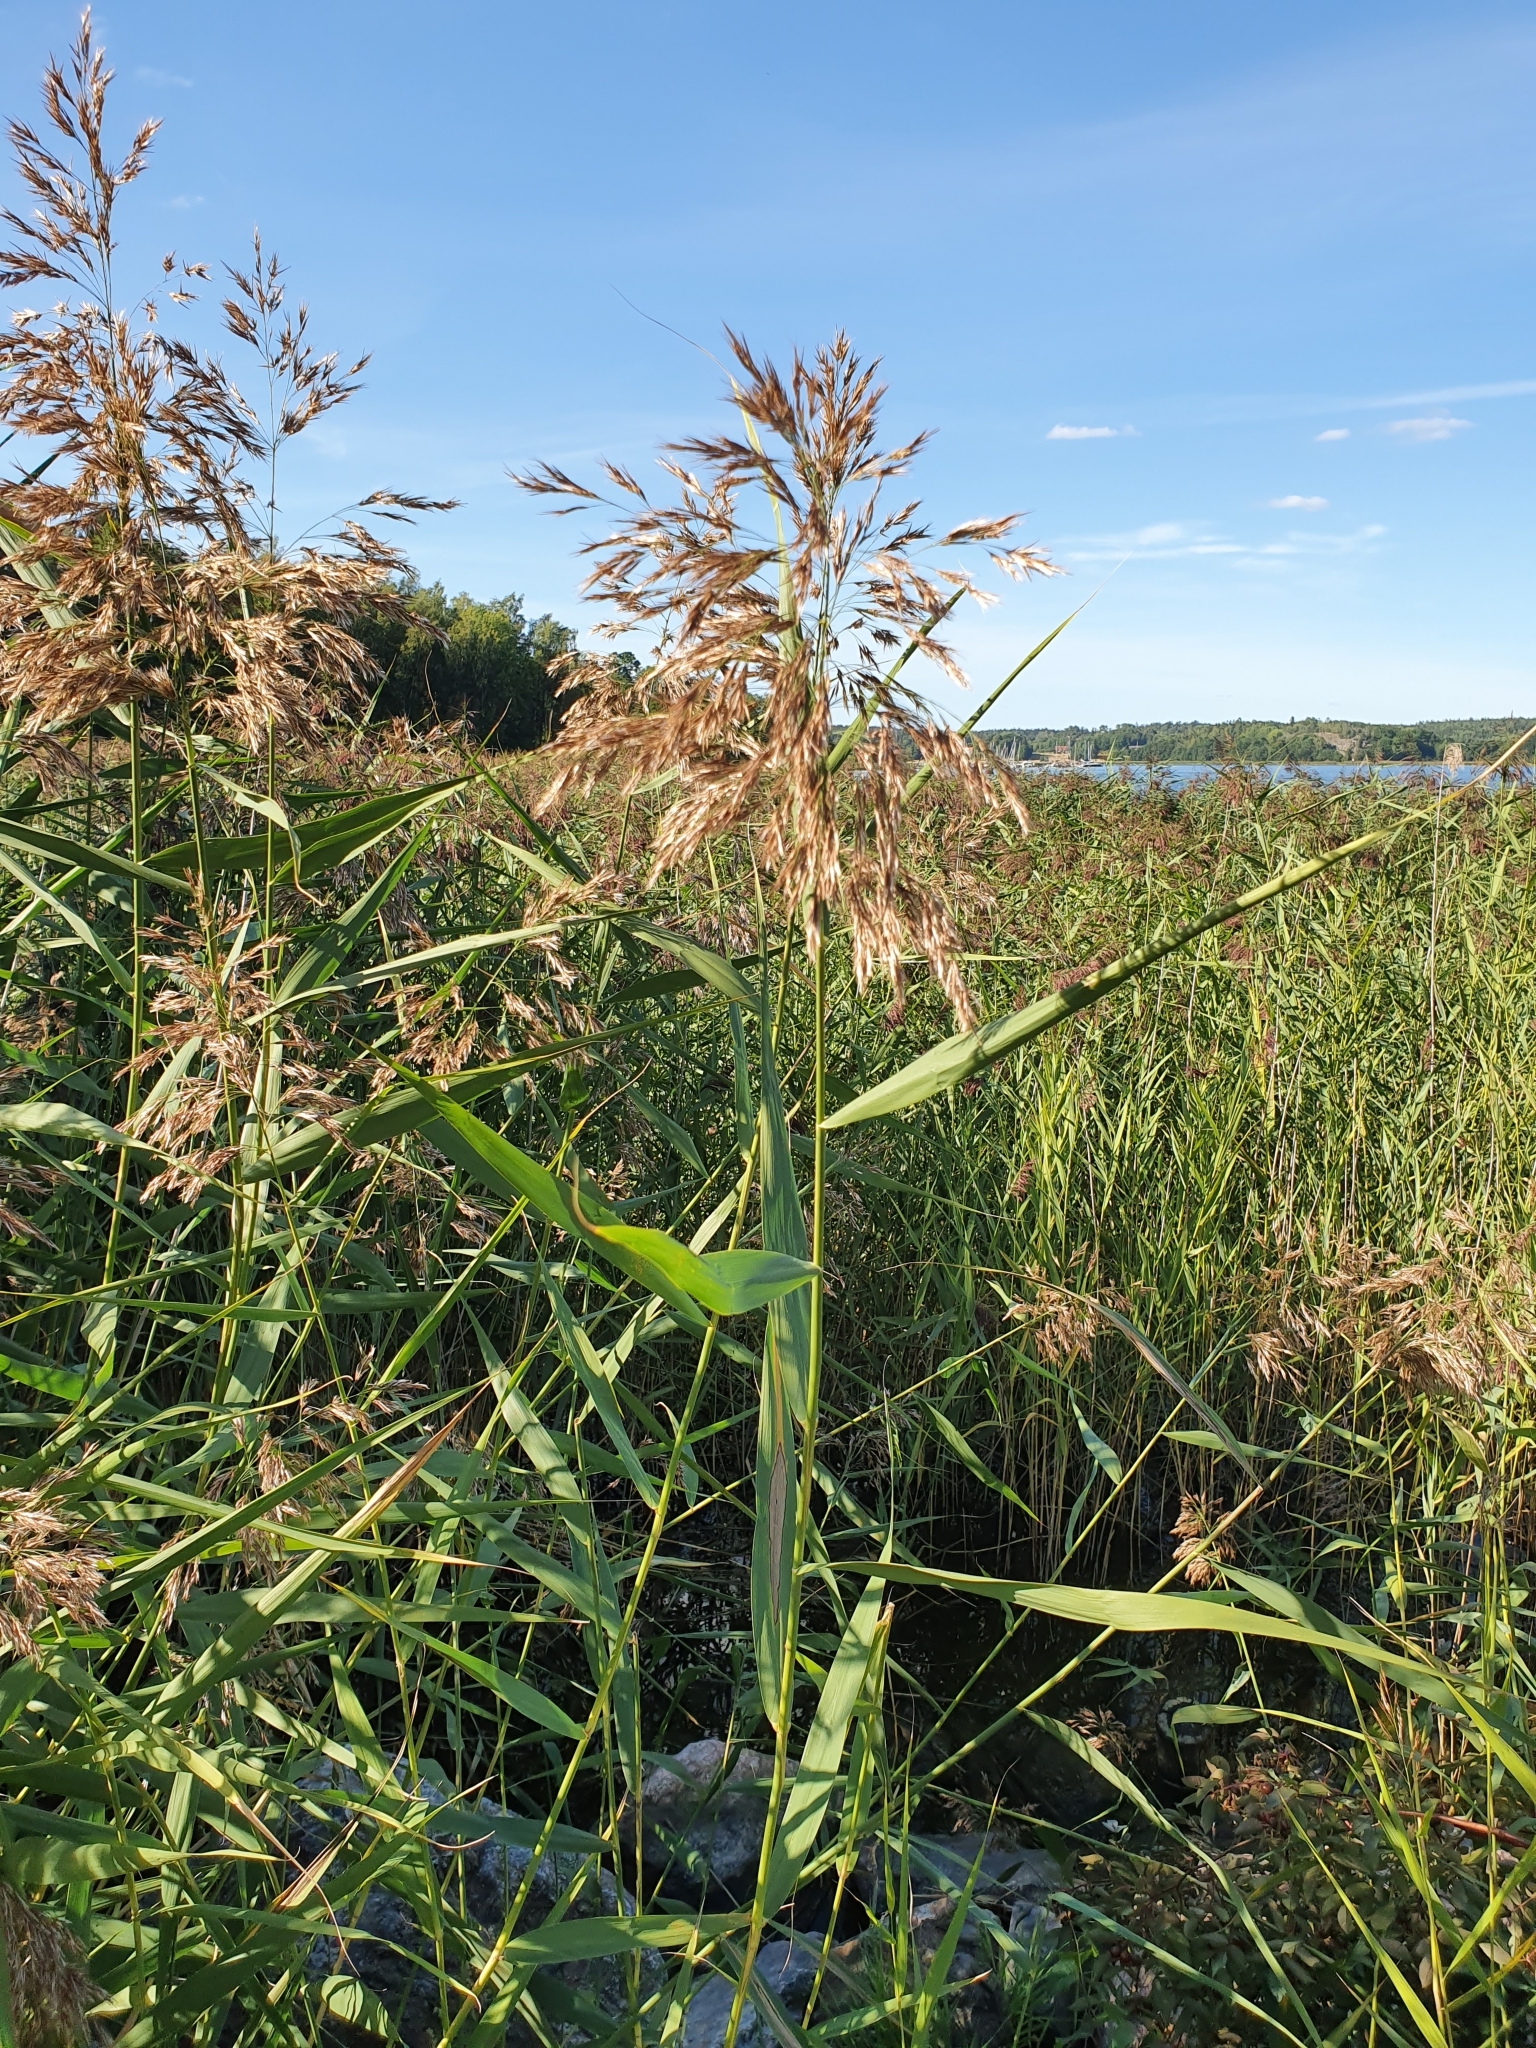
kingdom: Plantae
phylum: Tracheophyta
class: Liliopsida
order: Poales
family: Poaceae
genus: Phragmites
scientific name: Phragmites australis
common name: Common reed
